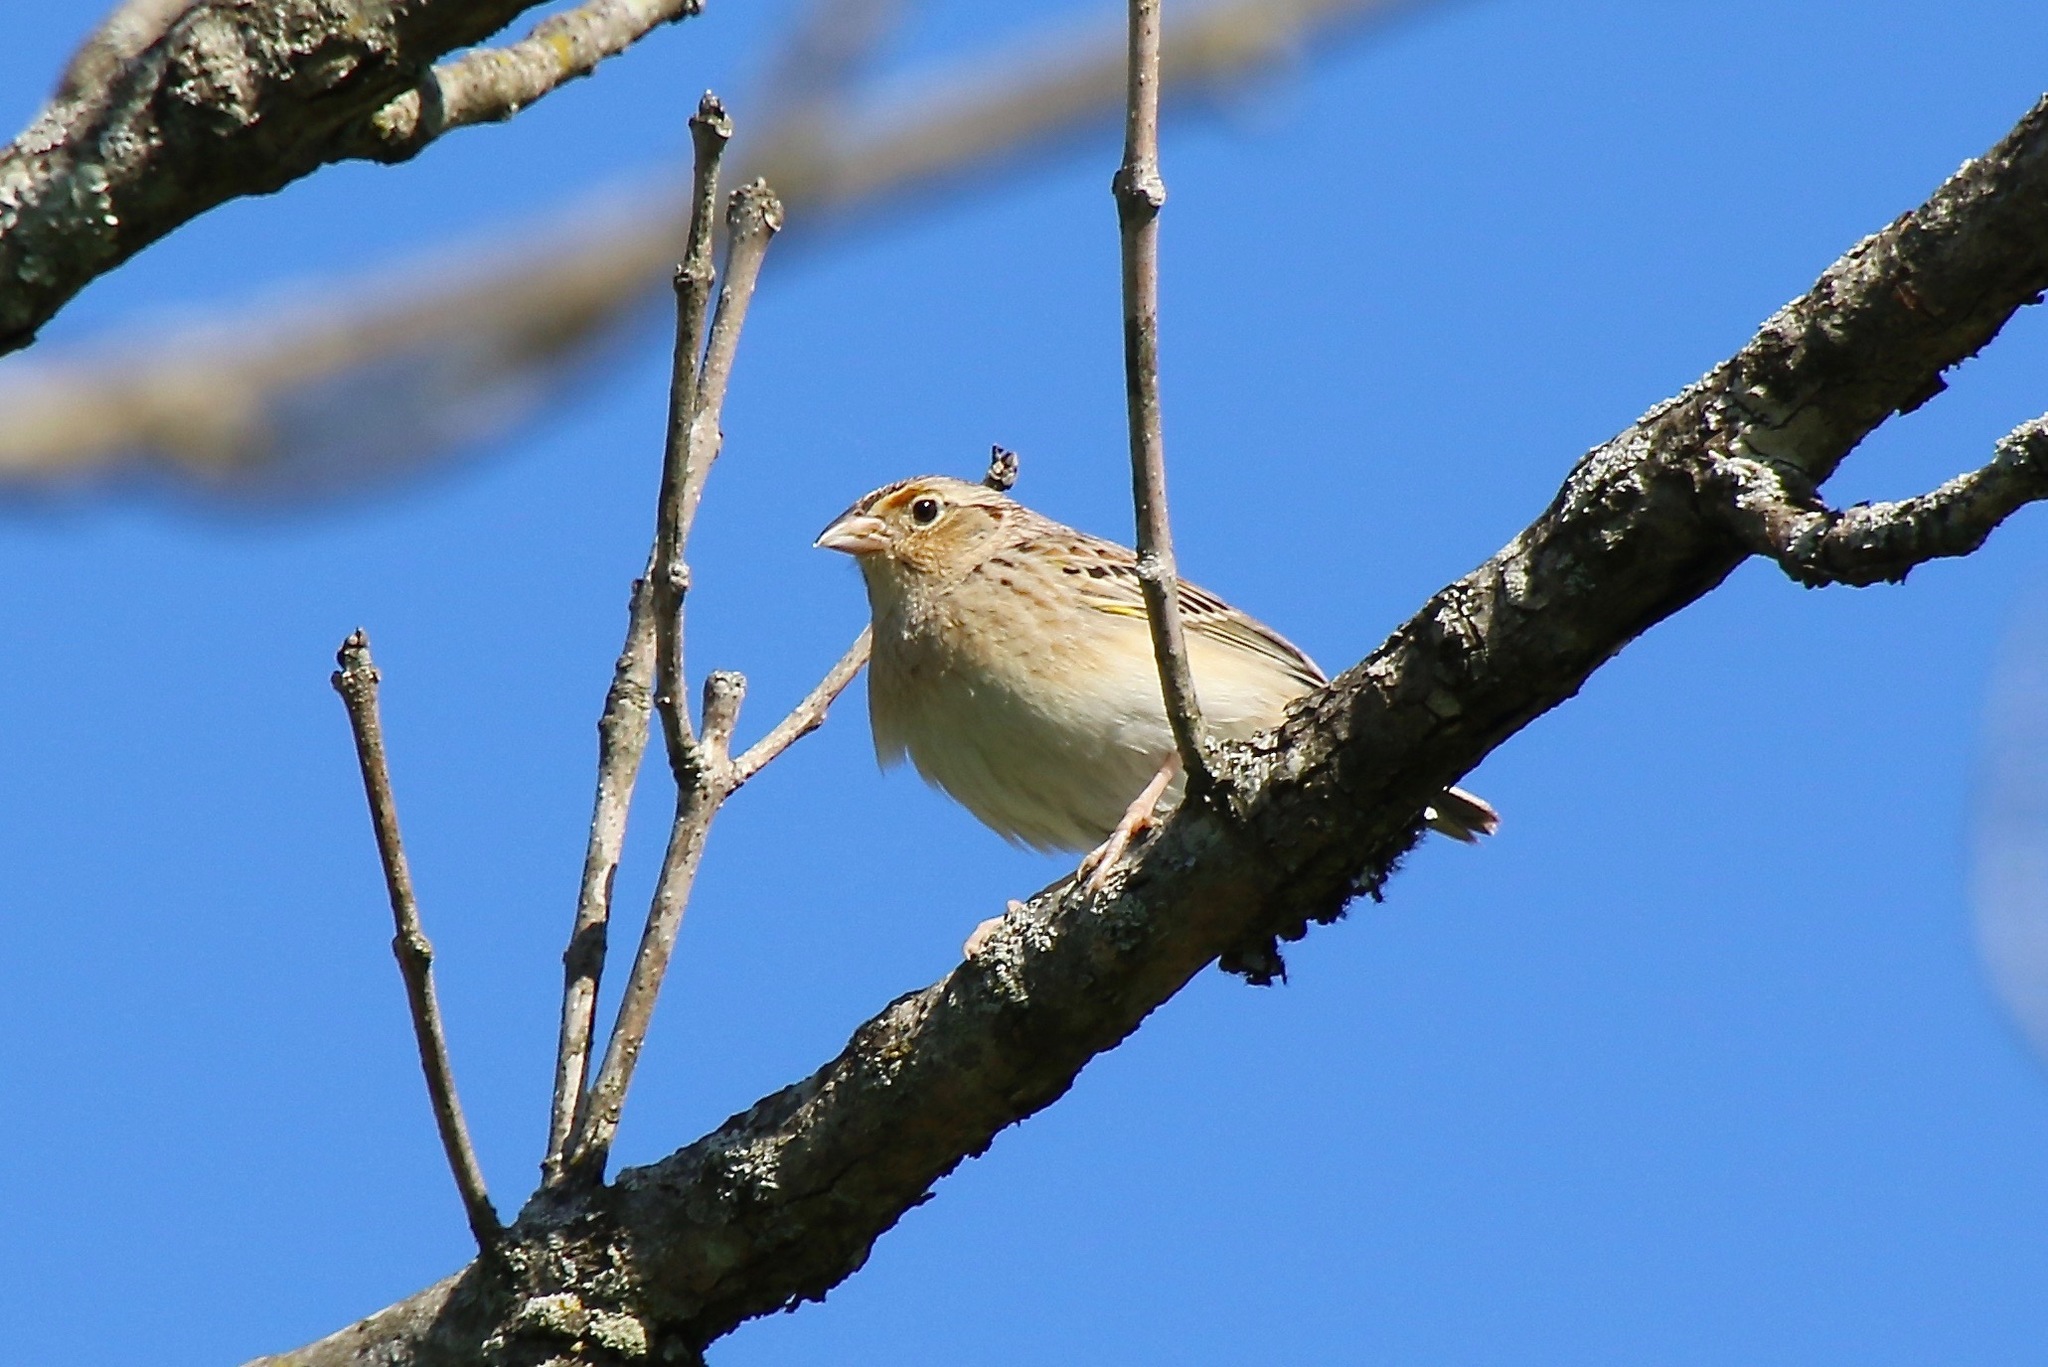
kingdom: Animalia
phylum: Chordata
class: Aves
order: Passeriformes
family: Passerellidae
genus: Ammodramus
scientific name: Ammodramus savannarum
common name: Grasshopper sparrow
